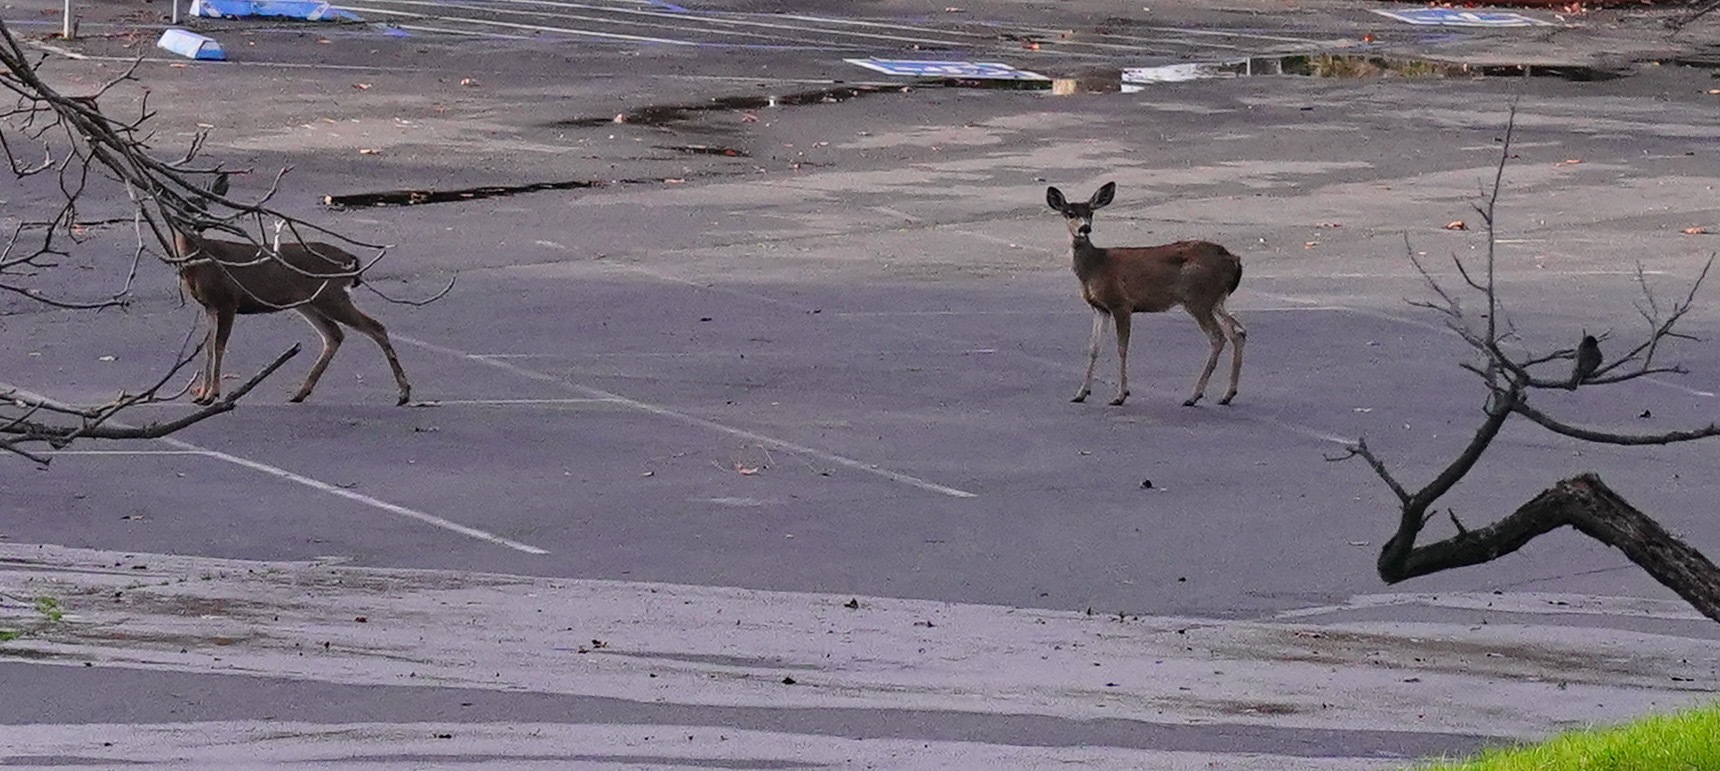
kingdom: Animalia
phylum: Chordata
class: Mammalia
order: Artiodactyla
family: Cervidae
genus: Odocoileus
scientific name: Odocoileus hemionus
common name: Mule deer
